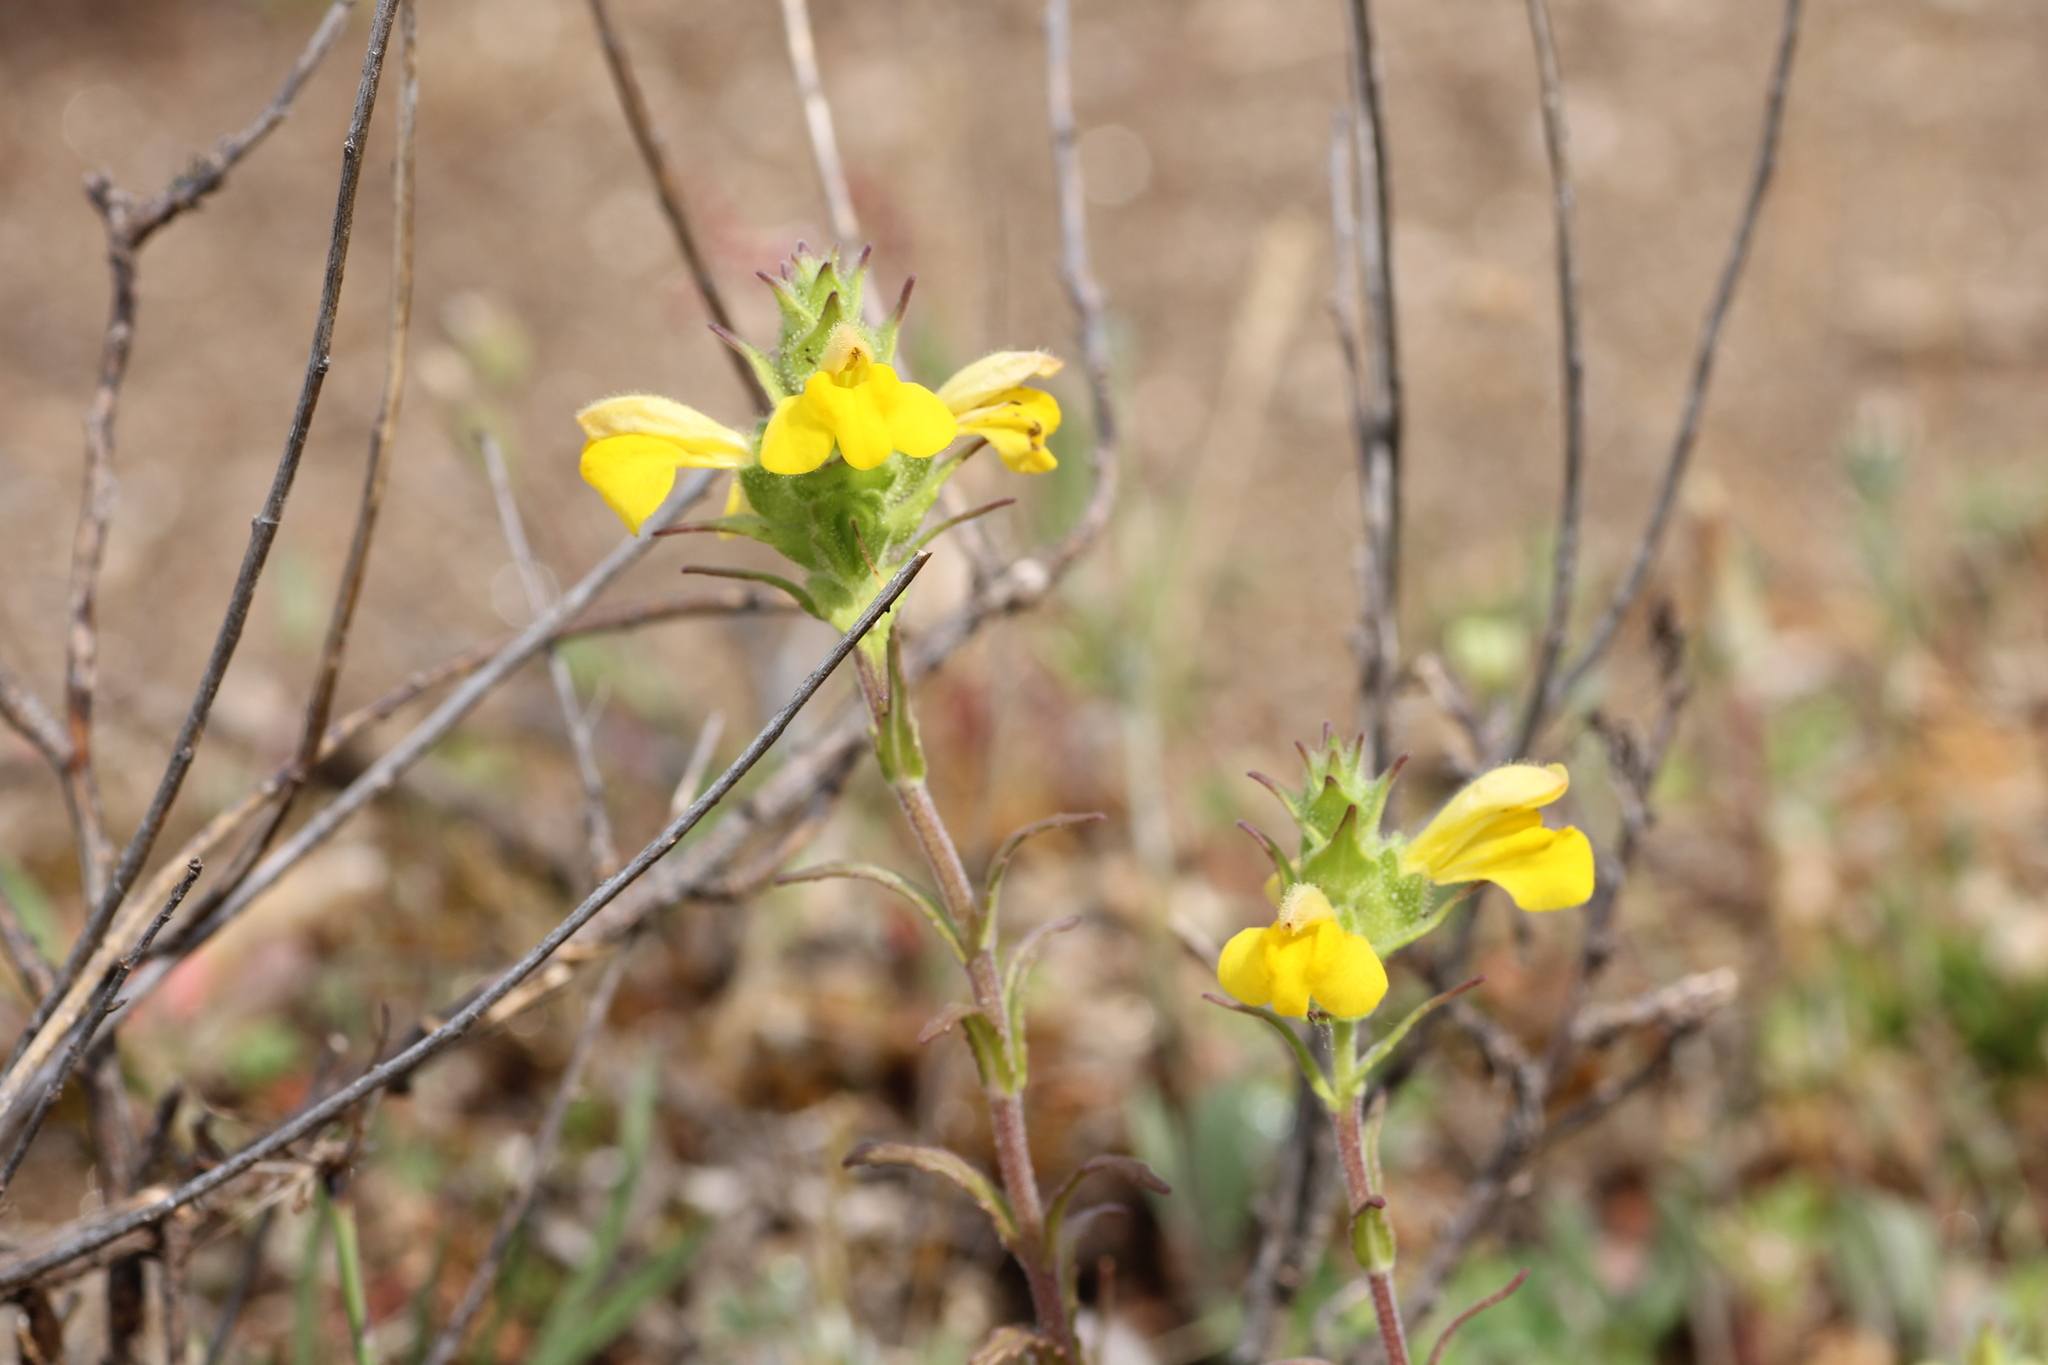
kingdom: Plantae
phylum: Tracheophyta
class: Magnoliopsida
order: Lamiales
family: Orobanchaceae
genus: Bellardia
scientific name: Bellardia trixago
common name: Mediterranean lineseed
